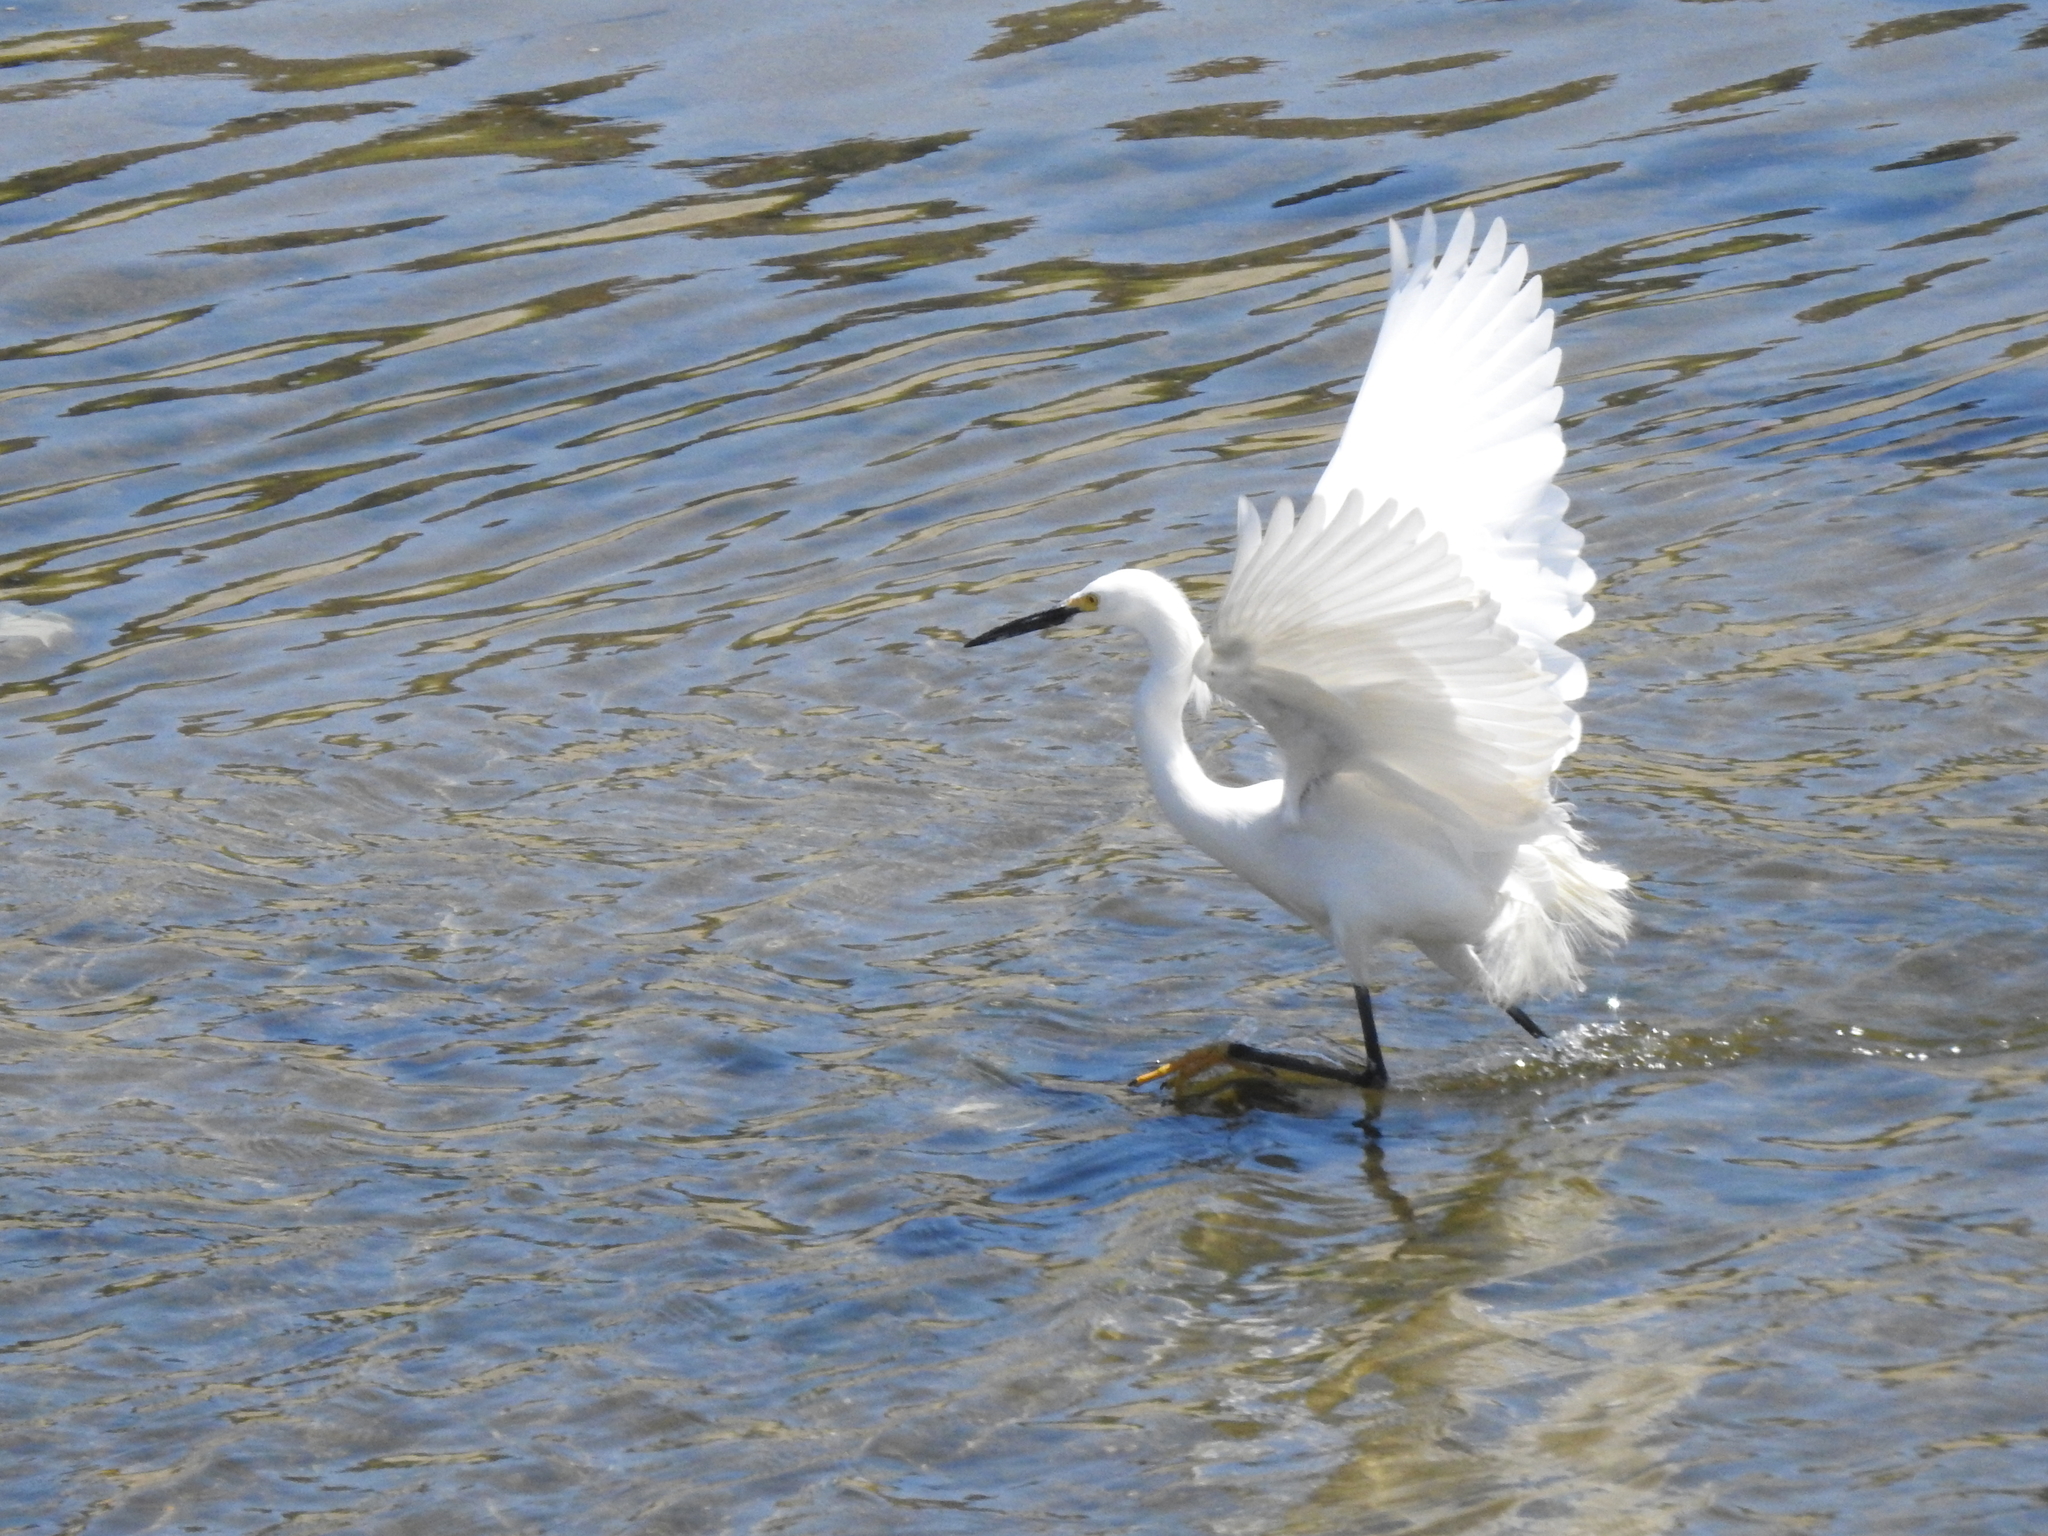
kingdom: Animalia
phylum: Chordata
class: Aves
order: Pelecaniformes
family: Ardeidae
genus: Egretta
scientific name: Egretta thula
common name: Snowy egret
